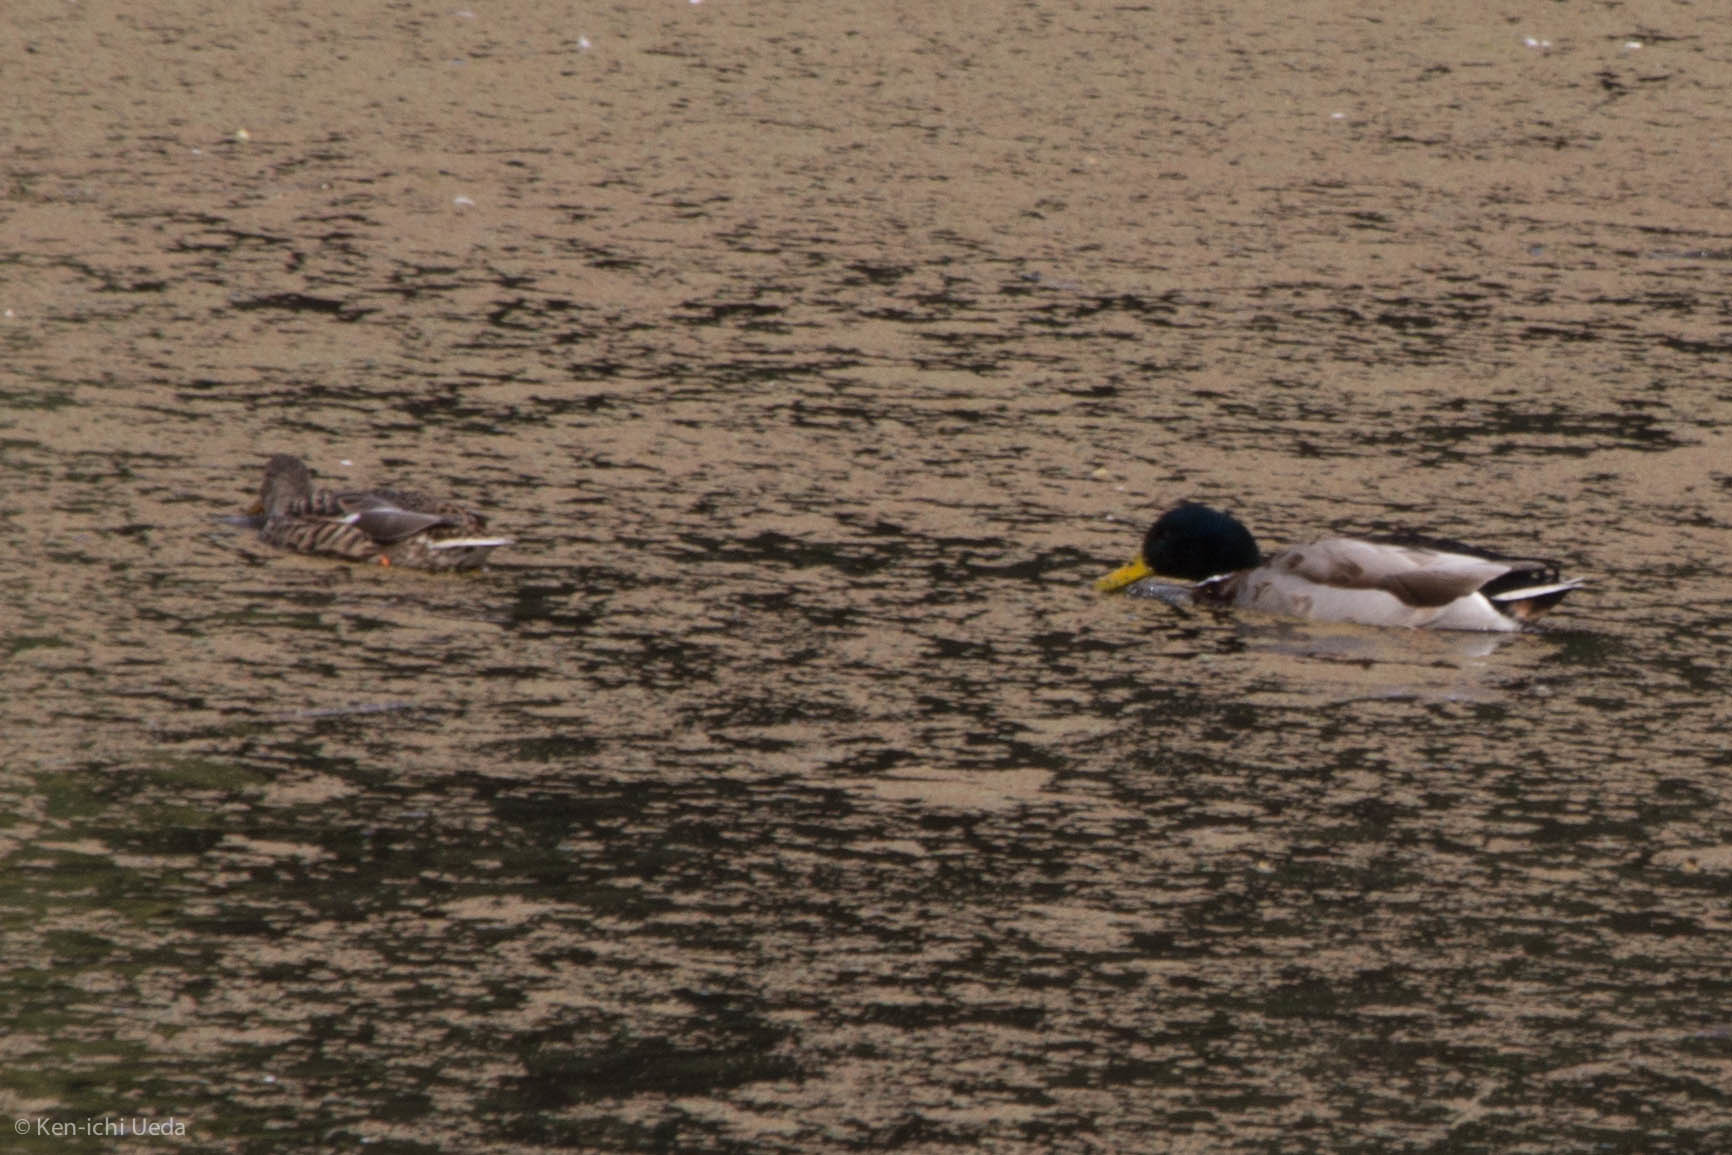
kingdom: Animalia
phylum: Chordata
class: Aves
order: Anseriformes
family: Anatidae
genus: Anas
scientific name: Anas platyrhynchos
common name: Mallard
